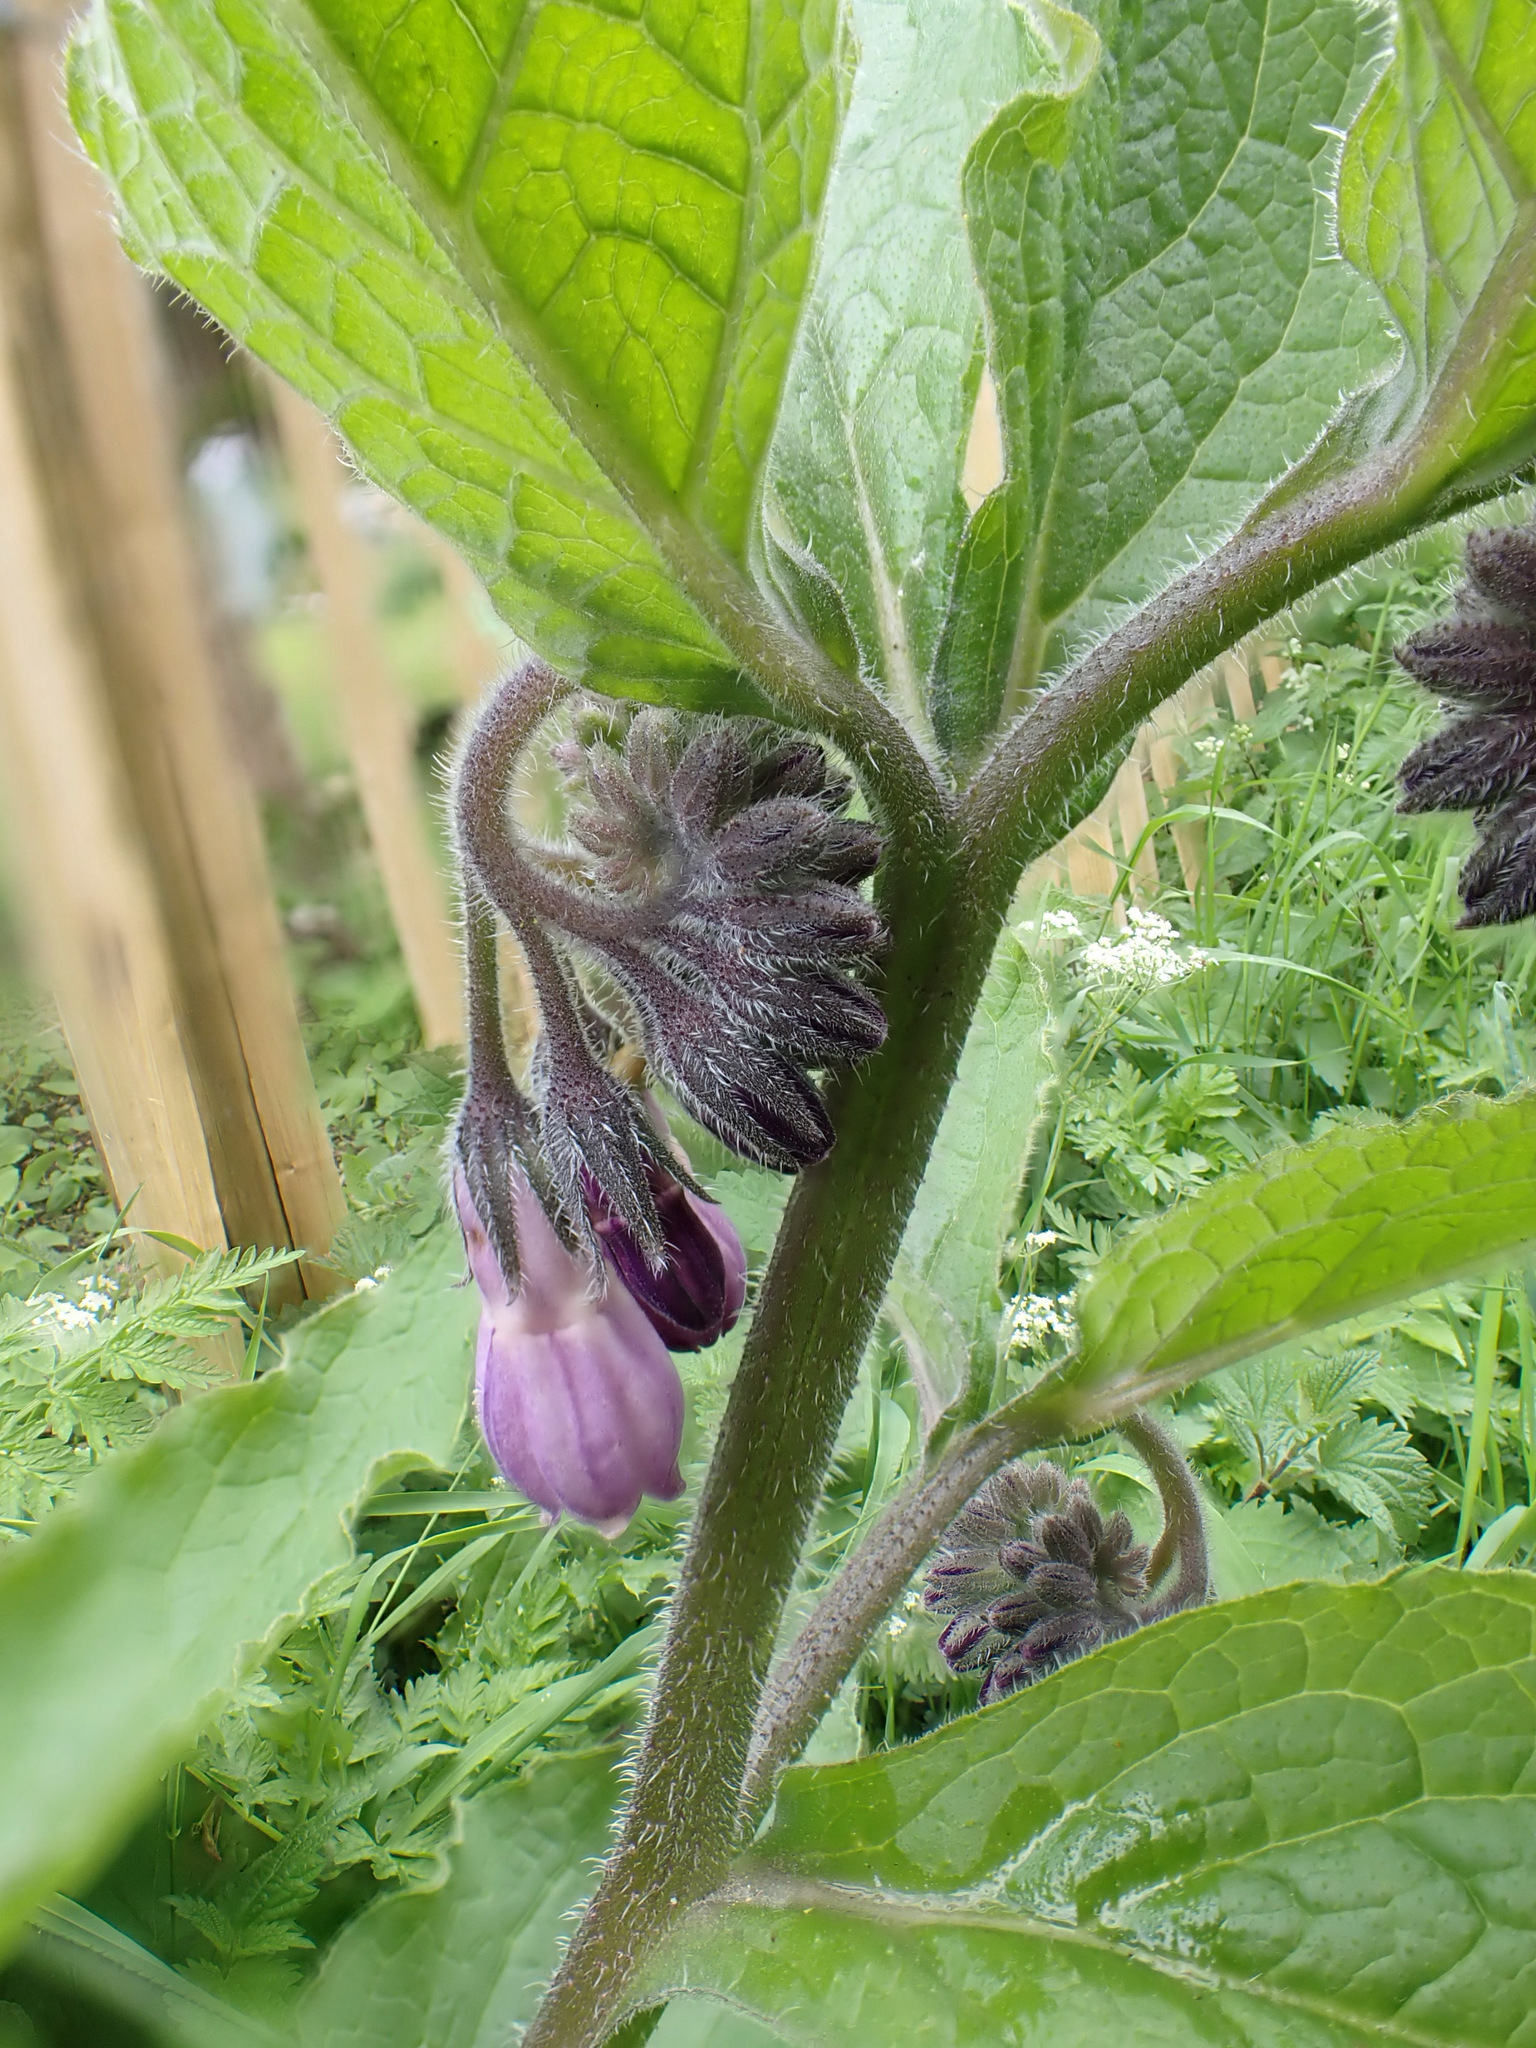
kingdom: Plantae
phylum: Tracheophyta
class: Magnoliopsida
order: Boraginales
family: Boraginaceae
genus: Symphytum
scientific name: Symphytum uplandicum
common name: Russian comfrey
